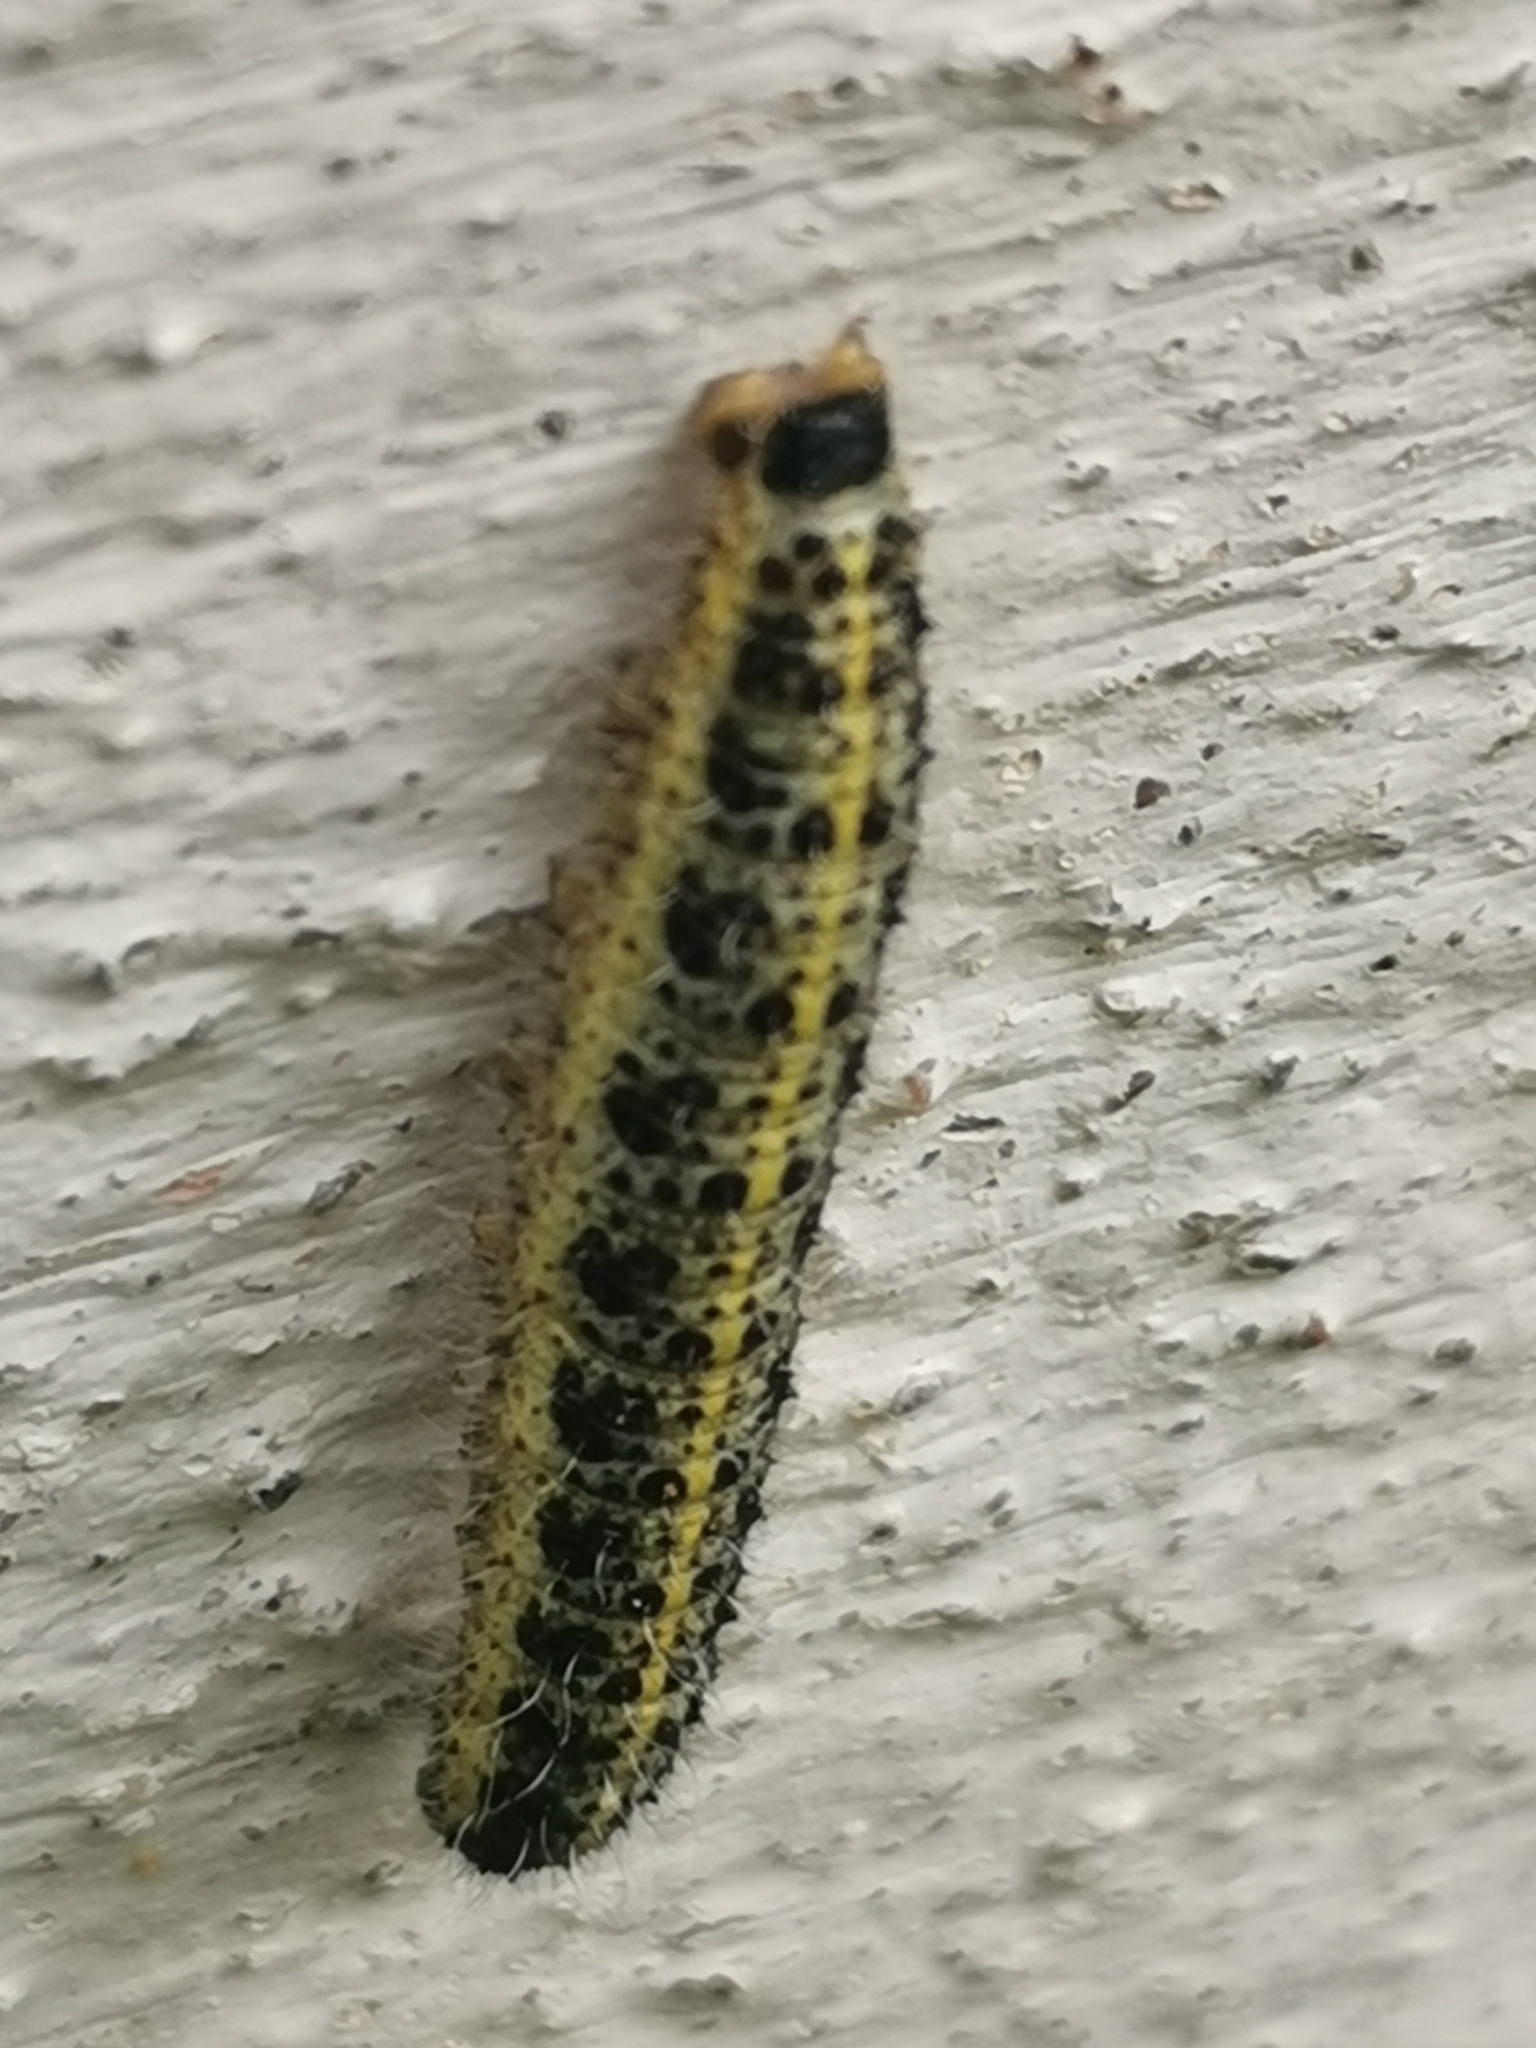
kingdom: Animalia
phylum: Arthropoda
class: Insecta
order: Lepidoptera
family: Pieridae
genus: Pieris
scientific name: Pieris brassicae
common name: Large white
